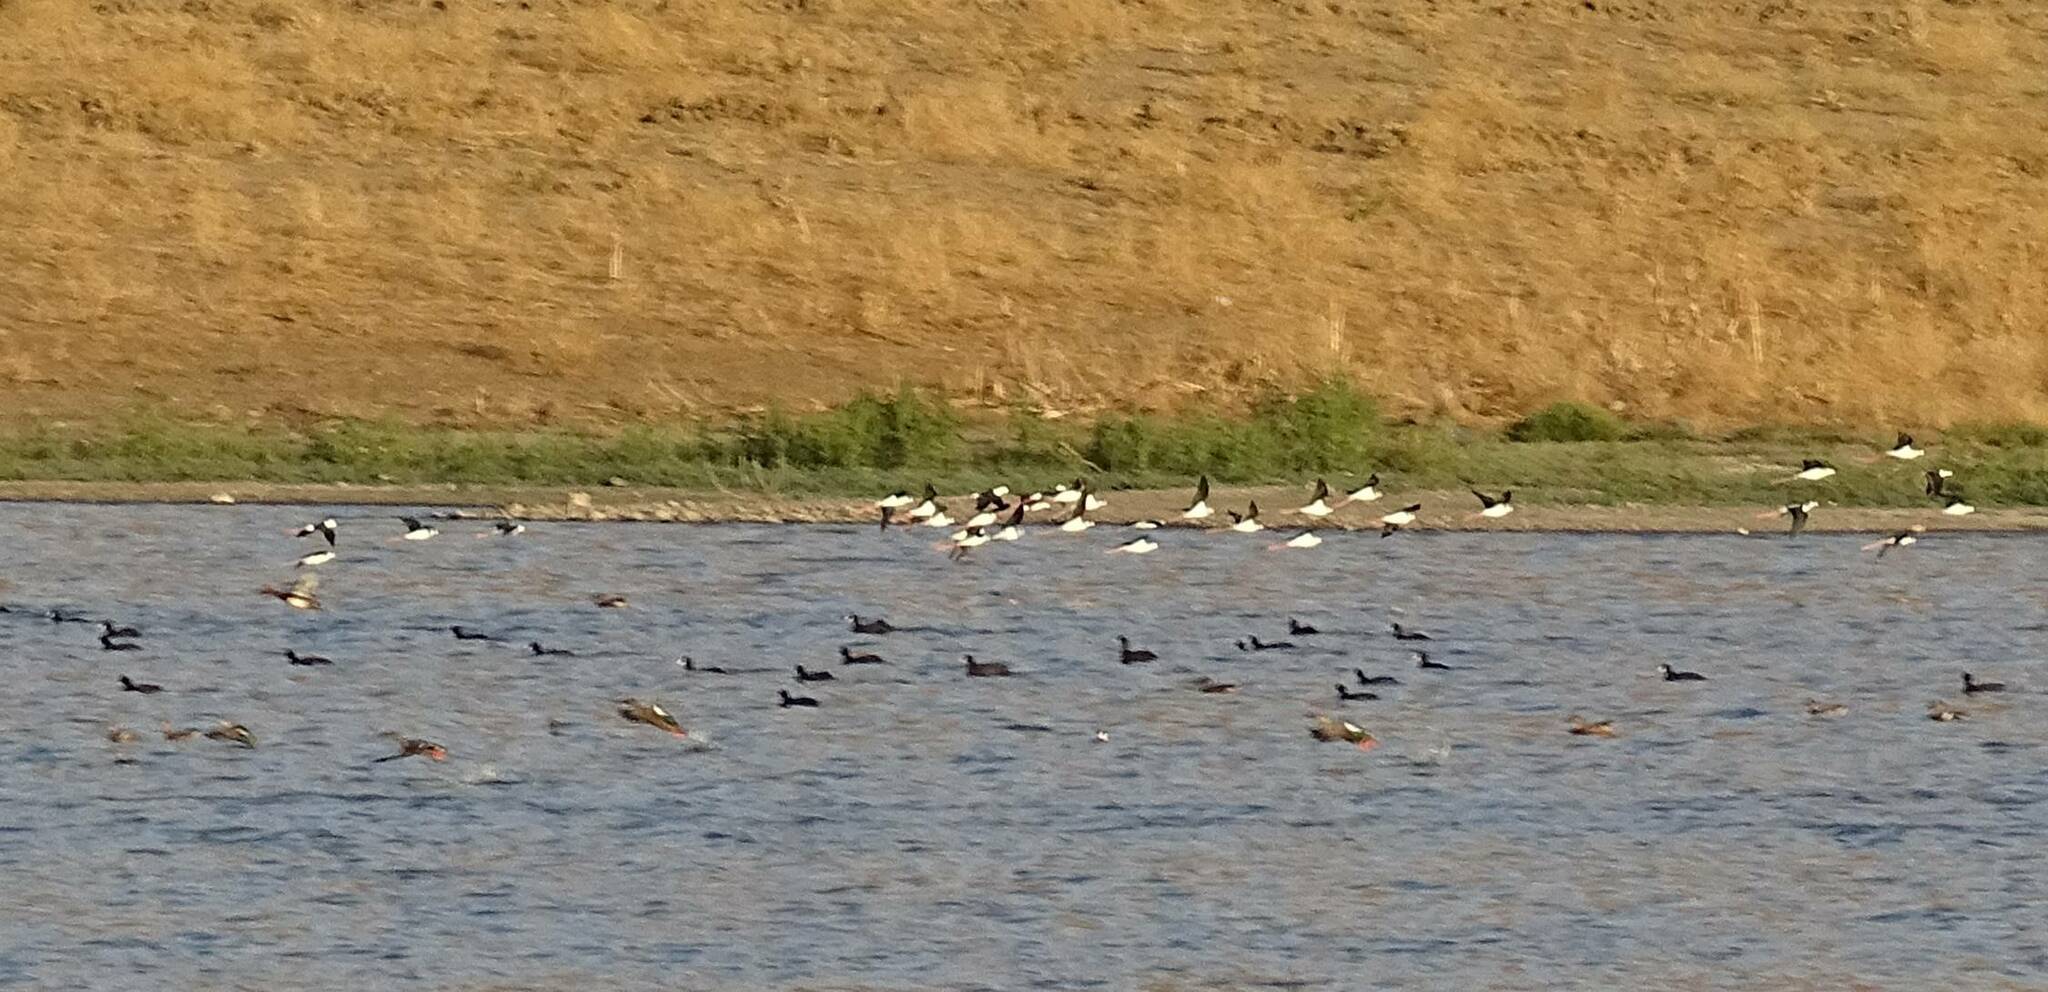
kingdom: Animalia
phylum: Chordata
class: Aves
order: Charadriiformes
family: Recurvirostridae
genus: Himantopus
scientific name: Himantopus himantopus
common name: Black-winged stilt
